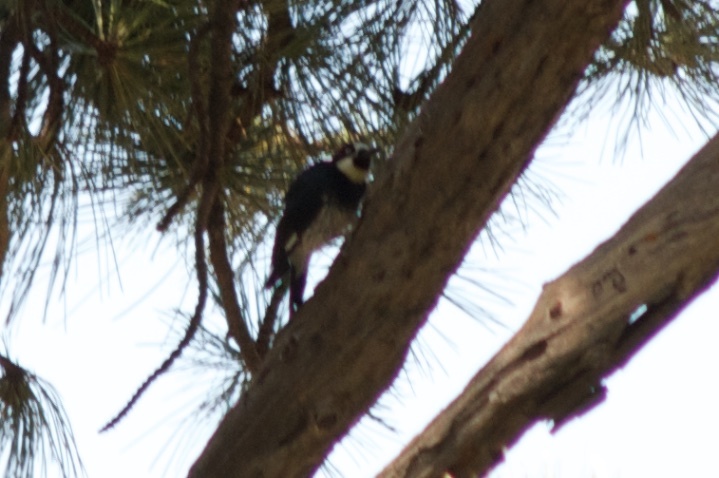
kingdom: Animalia
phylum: Chordata
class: Aves
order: Piciformes
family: Picidae
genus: Melanerpes
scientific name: Melanerpes formicivorus
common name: Acorn woodpecker
